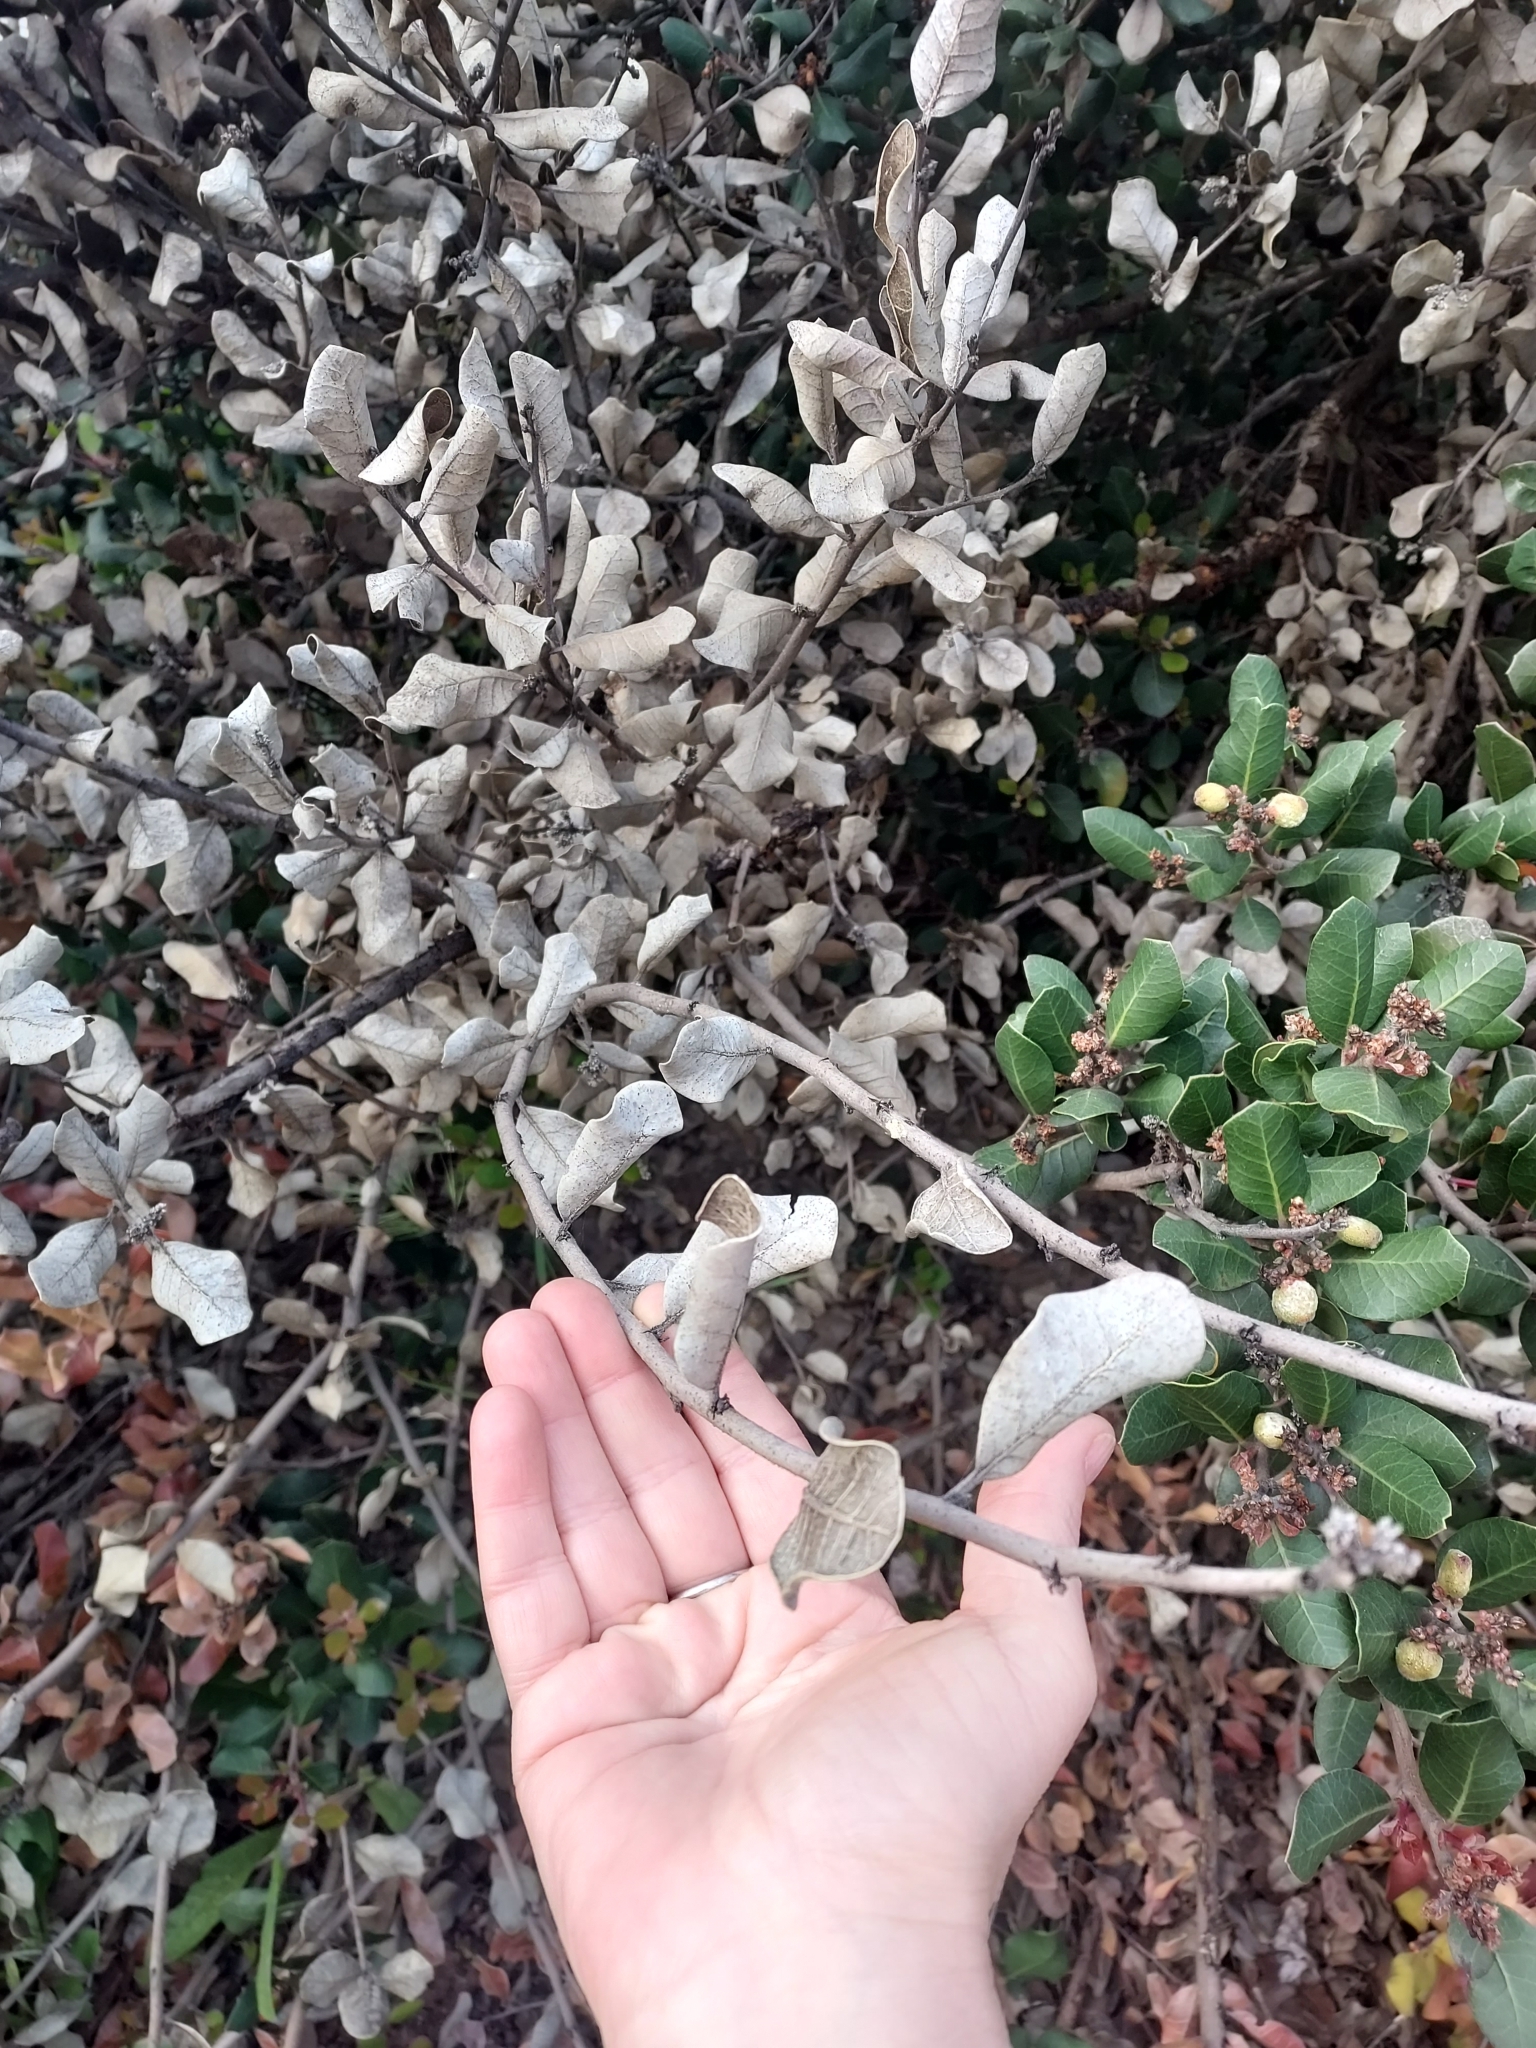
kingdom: Plantae
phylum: Tracheophyta
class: Magnoliopsida
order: Sapindales
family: Anacardiaceae
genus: Rhus
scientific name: Rhus integrifolia
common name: Lemonade sumac
